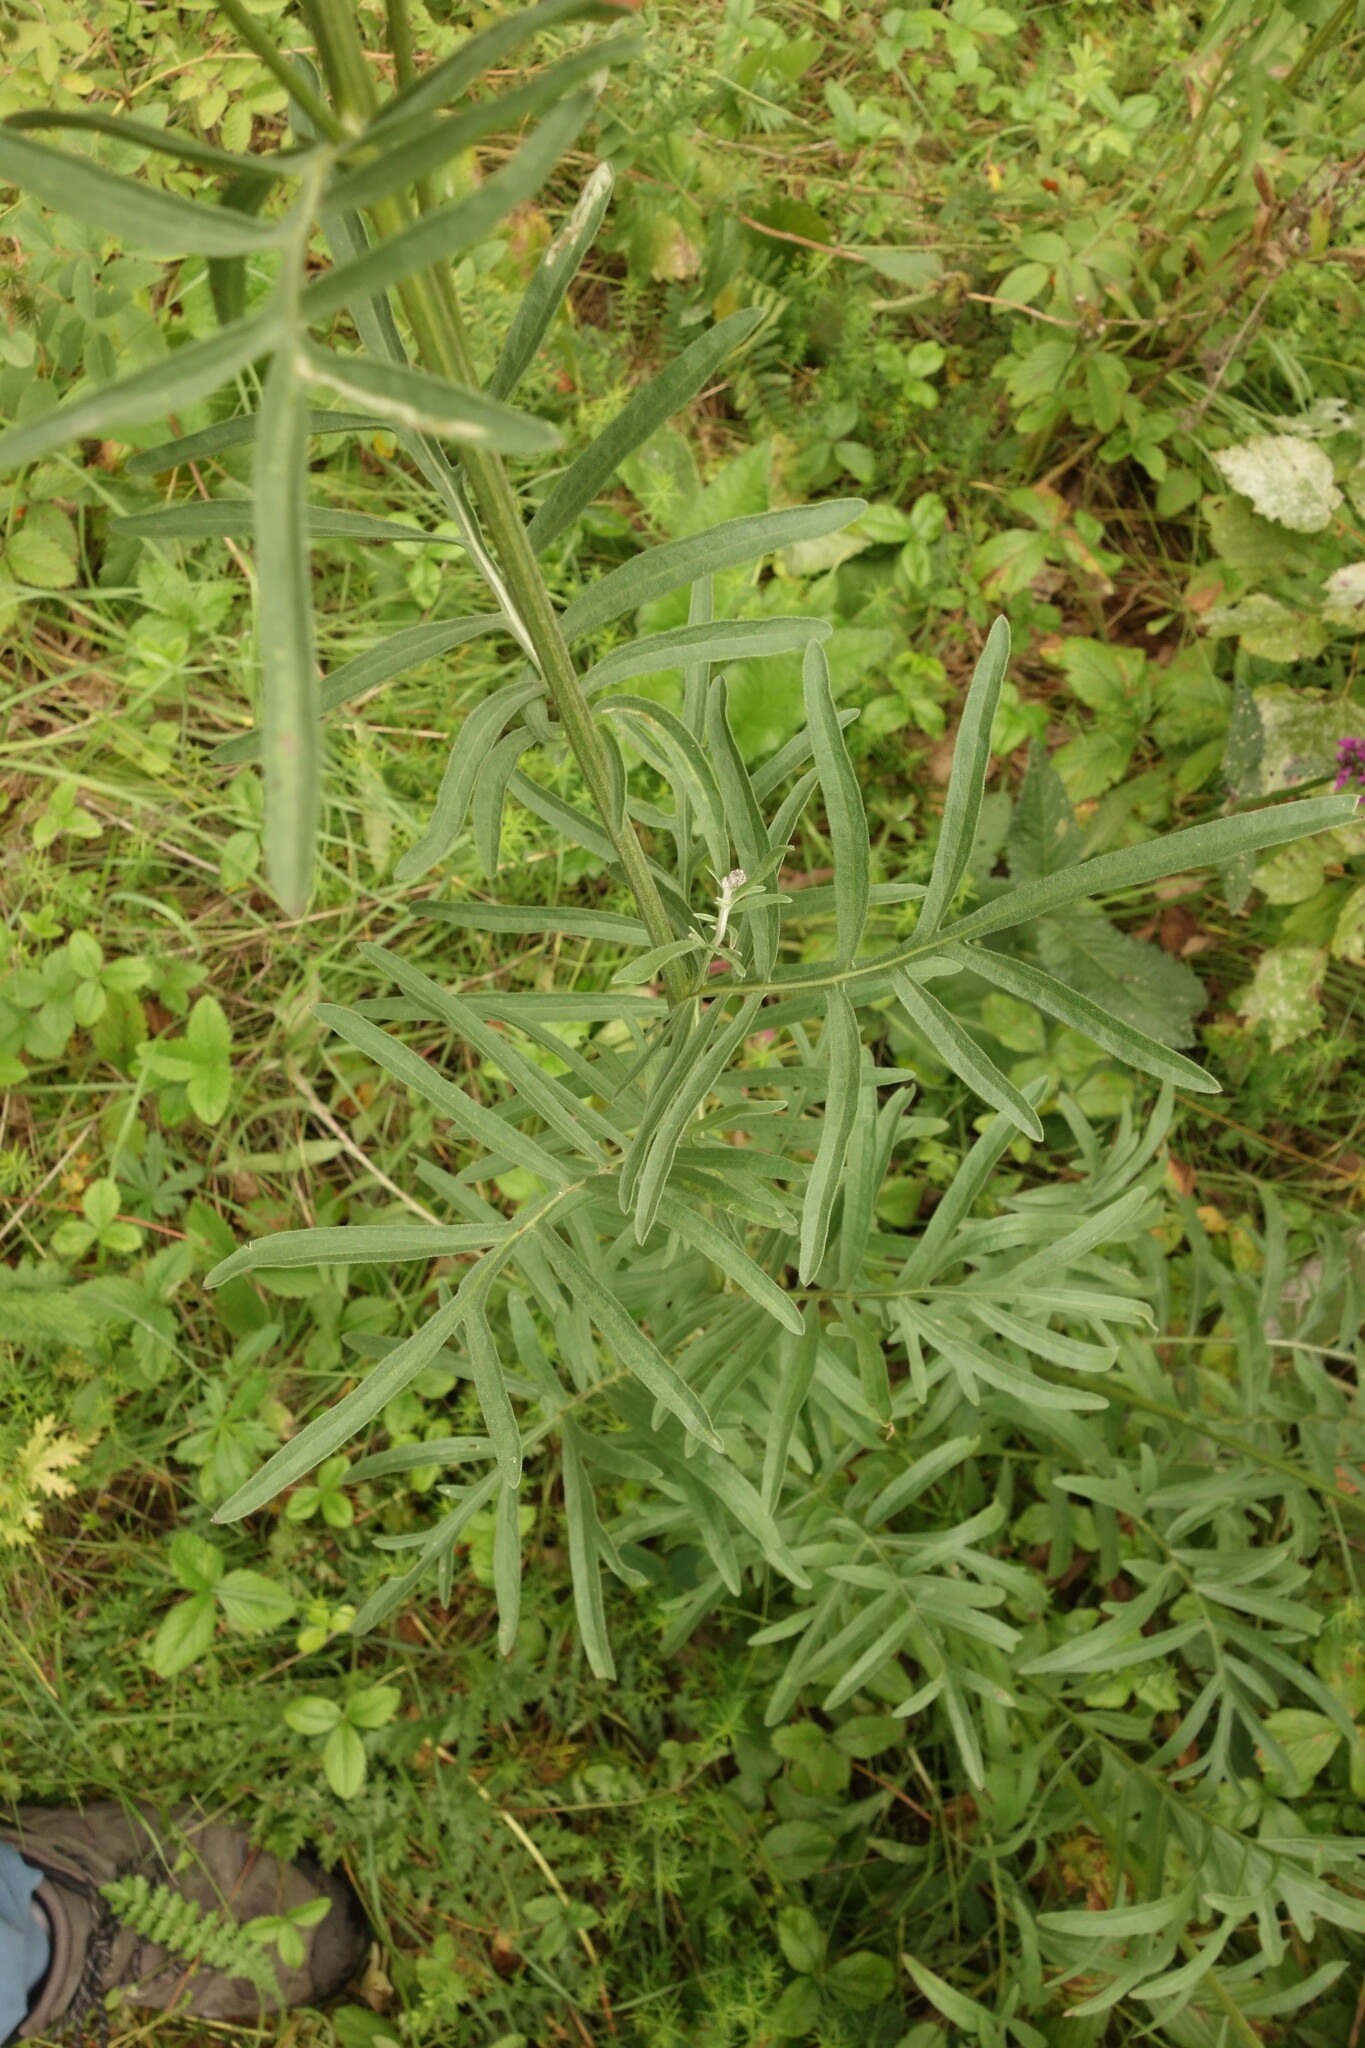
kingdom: Plantae
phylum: Tracheophyta
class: Magnoliopsida
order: Asterales
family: Asteraceae
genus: Centaurea
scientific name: Centaurea scabiosa
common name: Greater knapweed
